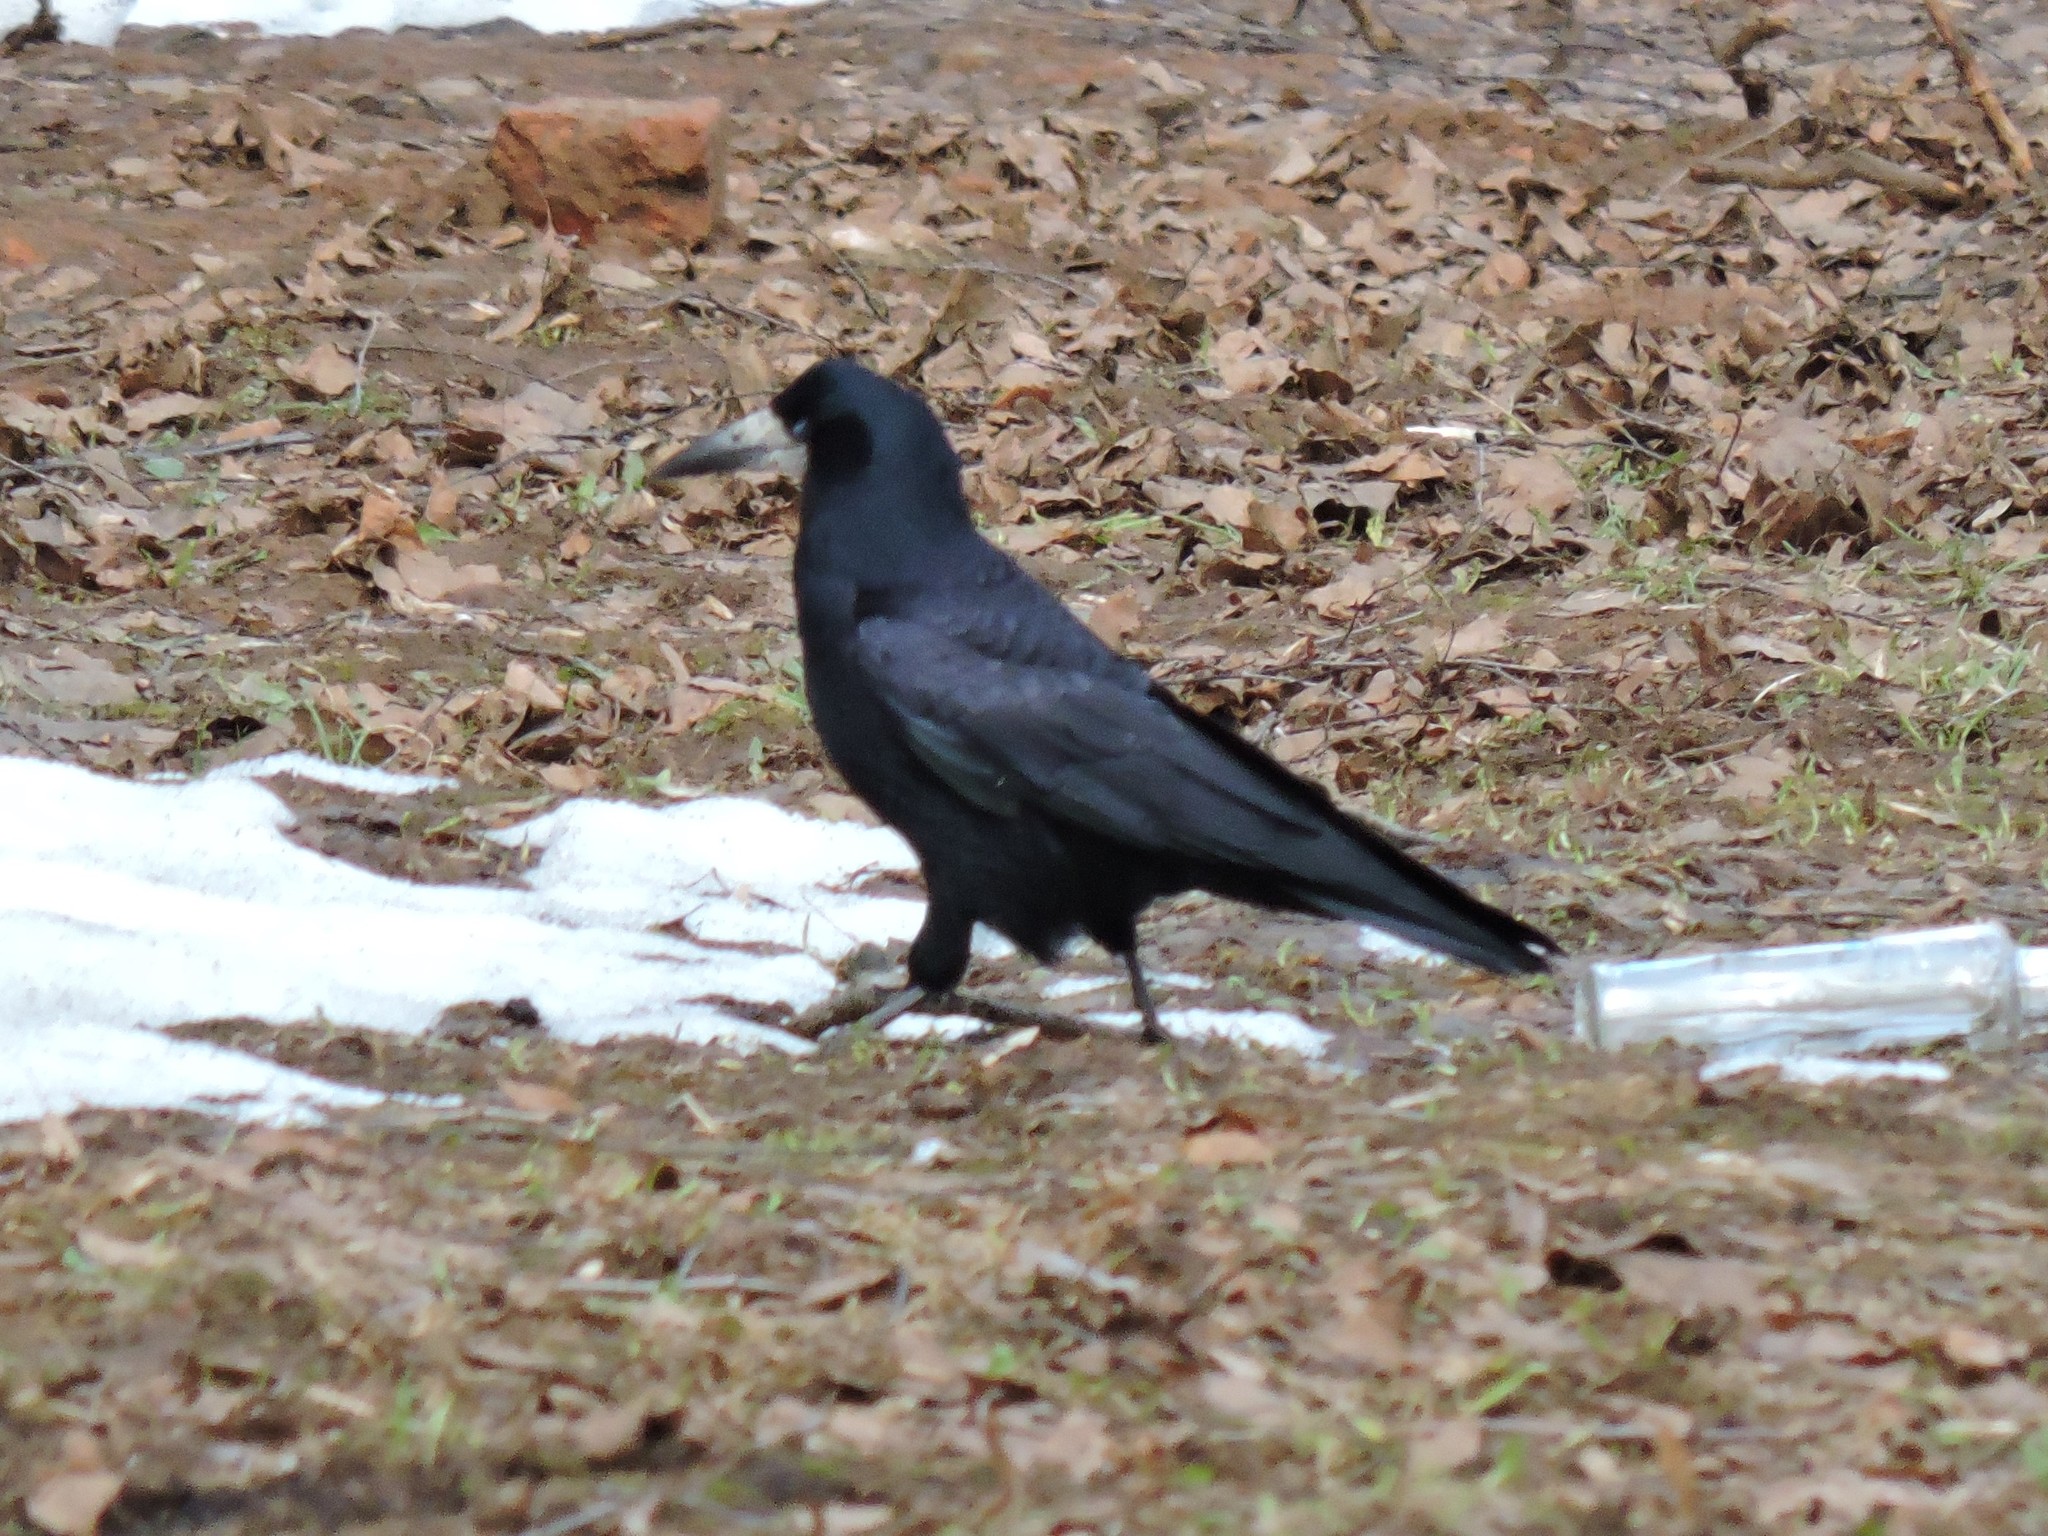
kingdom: Animalia
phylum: Chordata
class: Aves
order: Passeriformes
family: Corvidae
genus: Corvus
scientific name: Corvus frugilegus
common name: Rook
